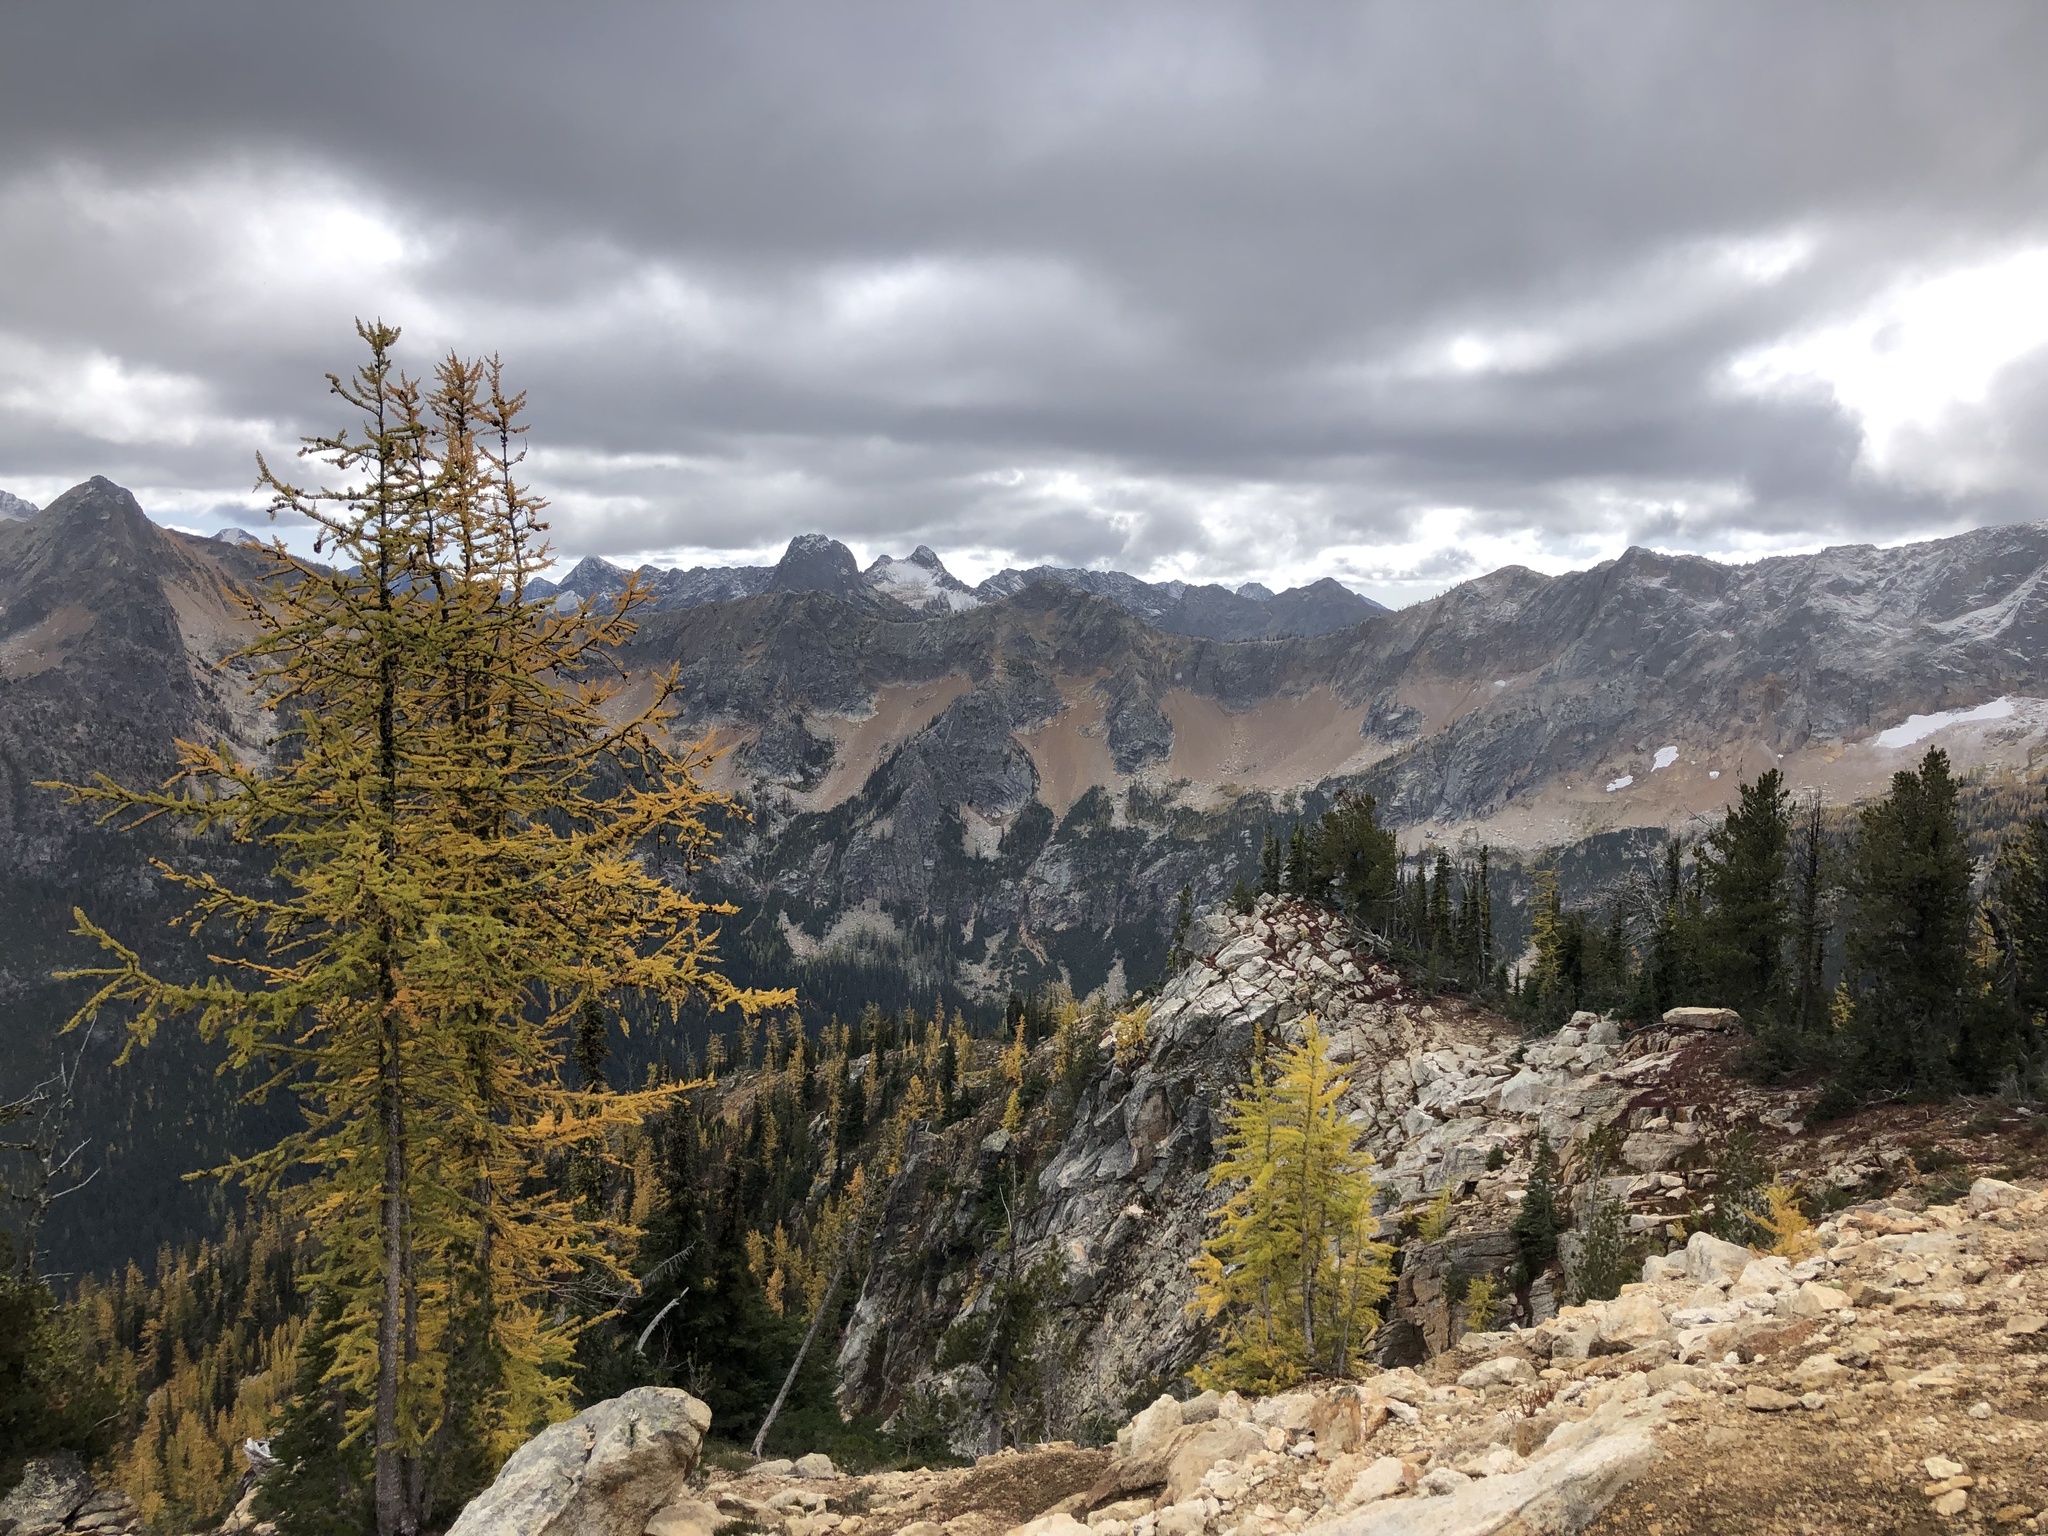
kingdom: Plantae
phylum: Tracheophyta
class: Pinopsida
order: Pinales
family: Pinaceae
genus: Larix
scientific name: Larix lyallii
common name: Alpine larch
